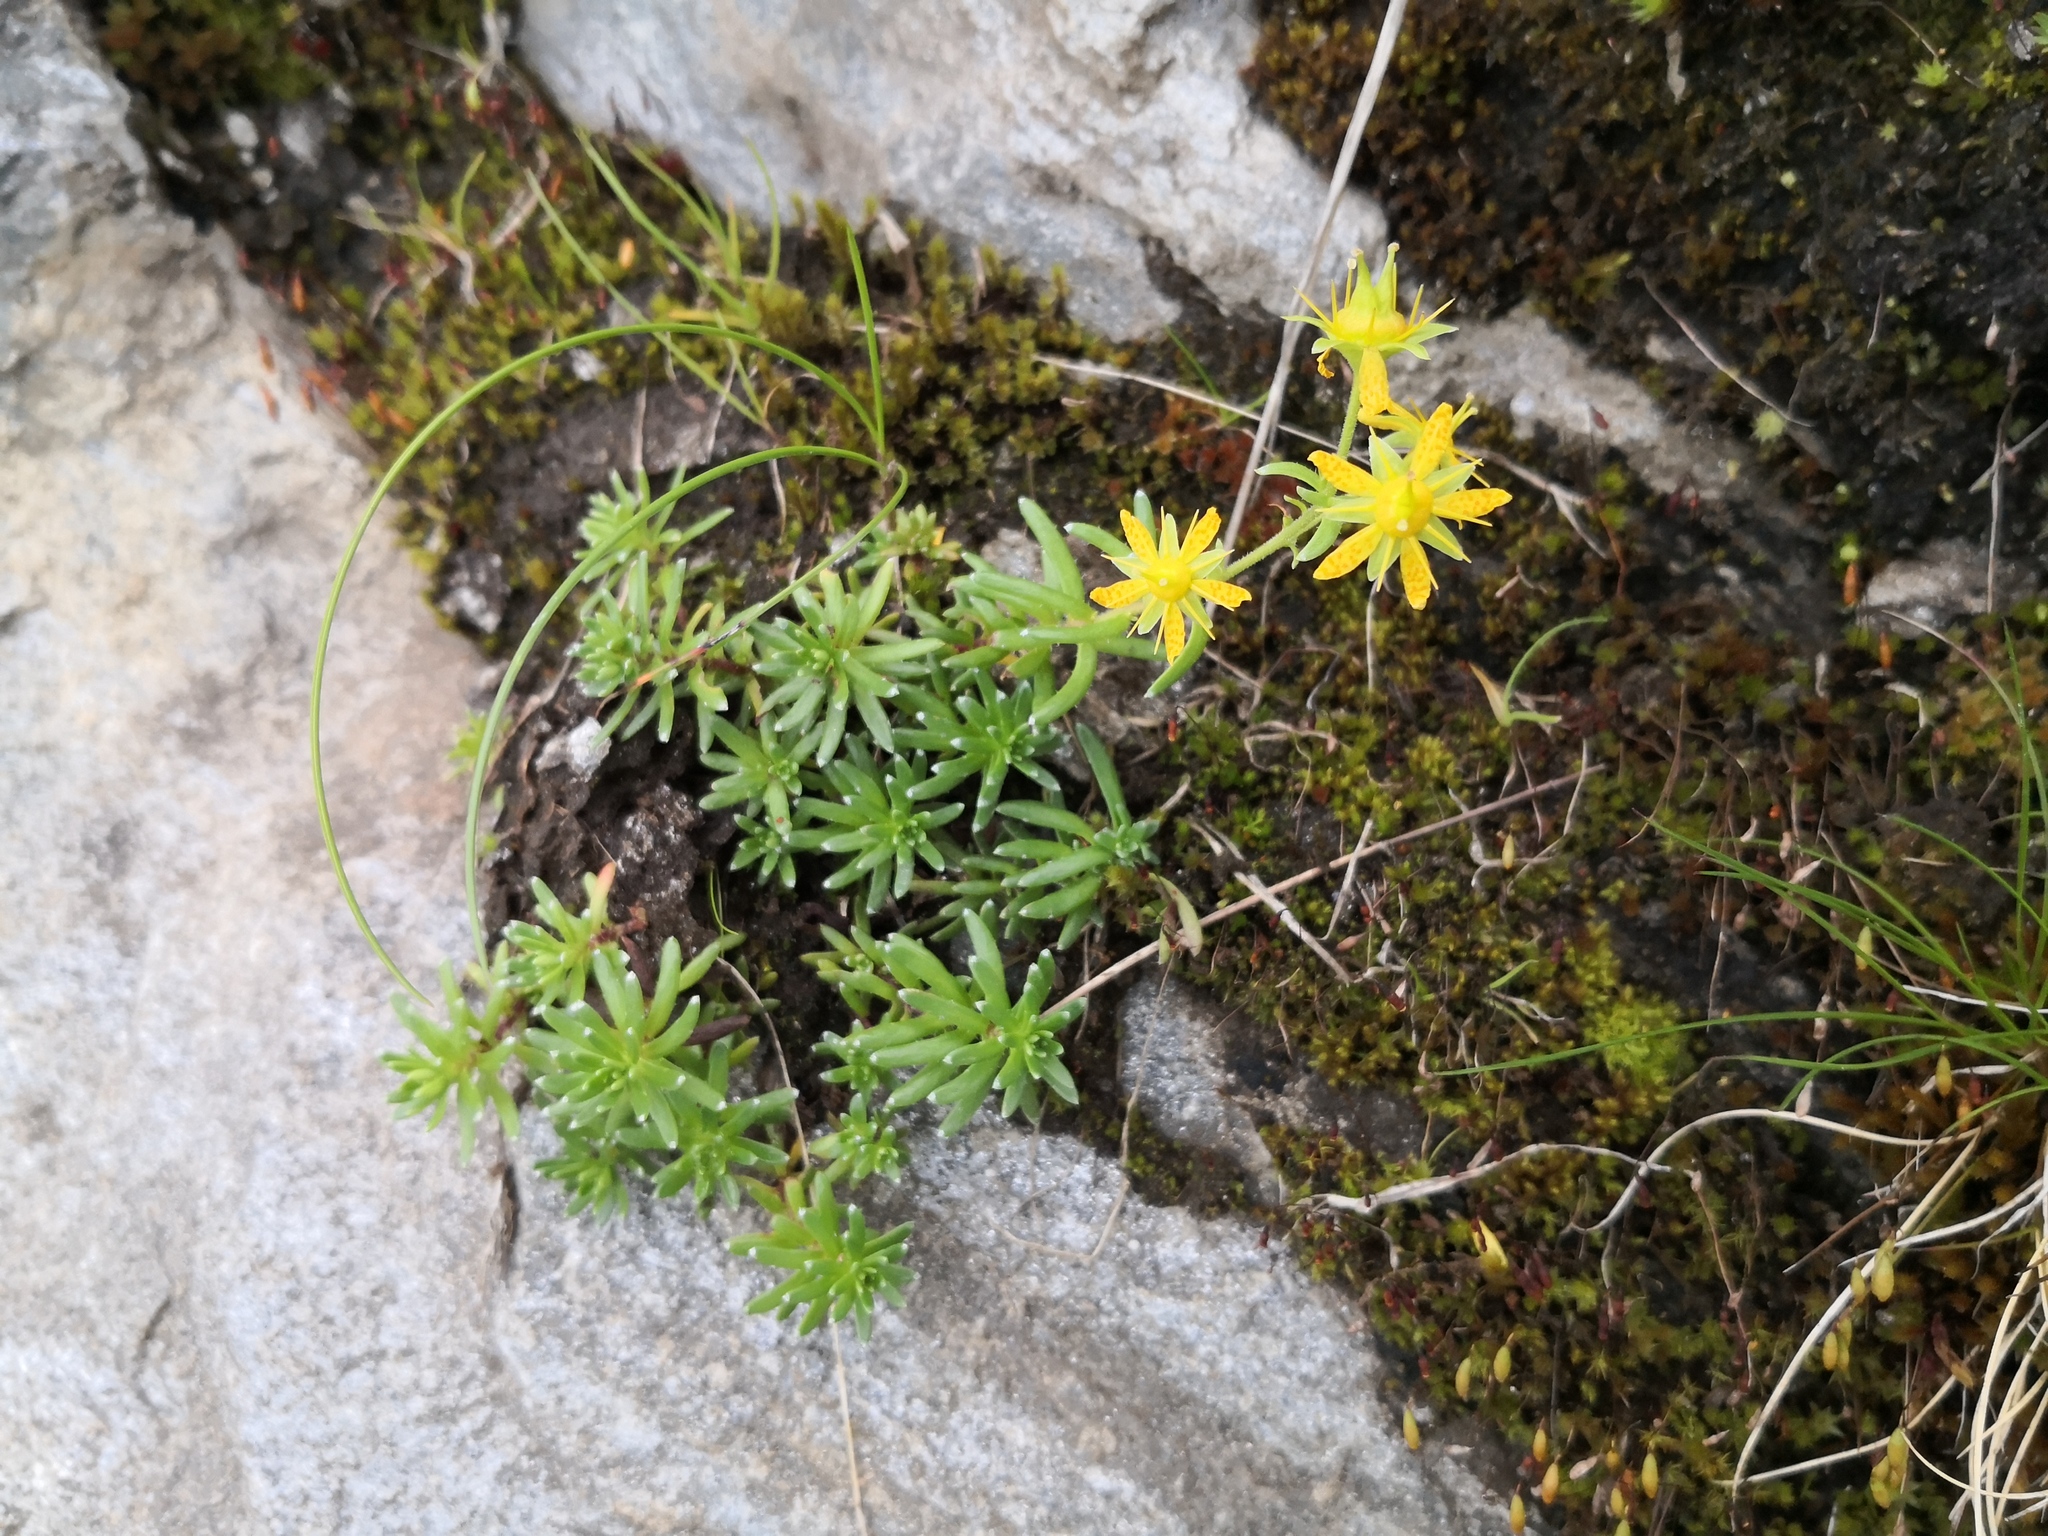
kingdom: Plantae
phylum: Tracheophyta
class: Magnoliopsida
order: Saxifragales
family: Saxifragaceae
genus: Saxifraga
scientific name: Saxifraga aizoides
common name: Yellow mountain saxifrage
